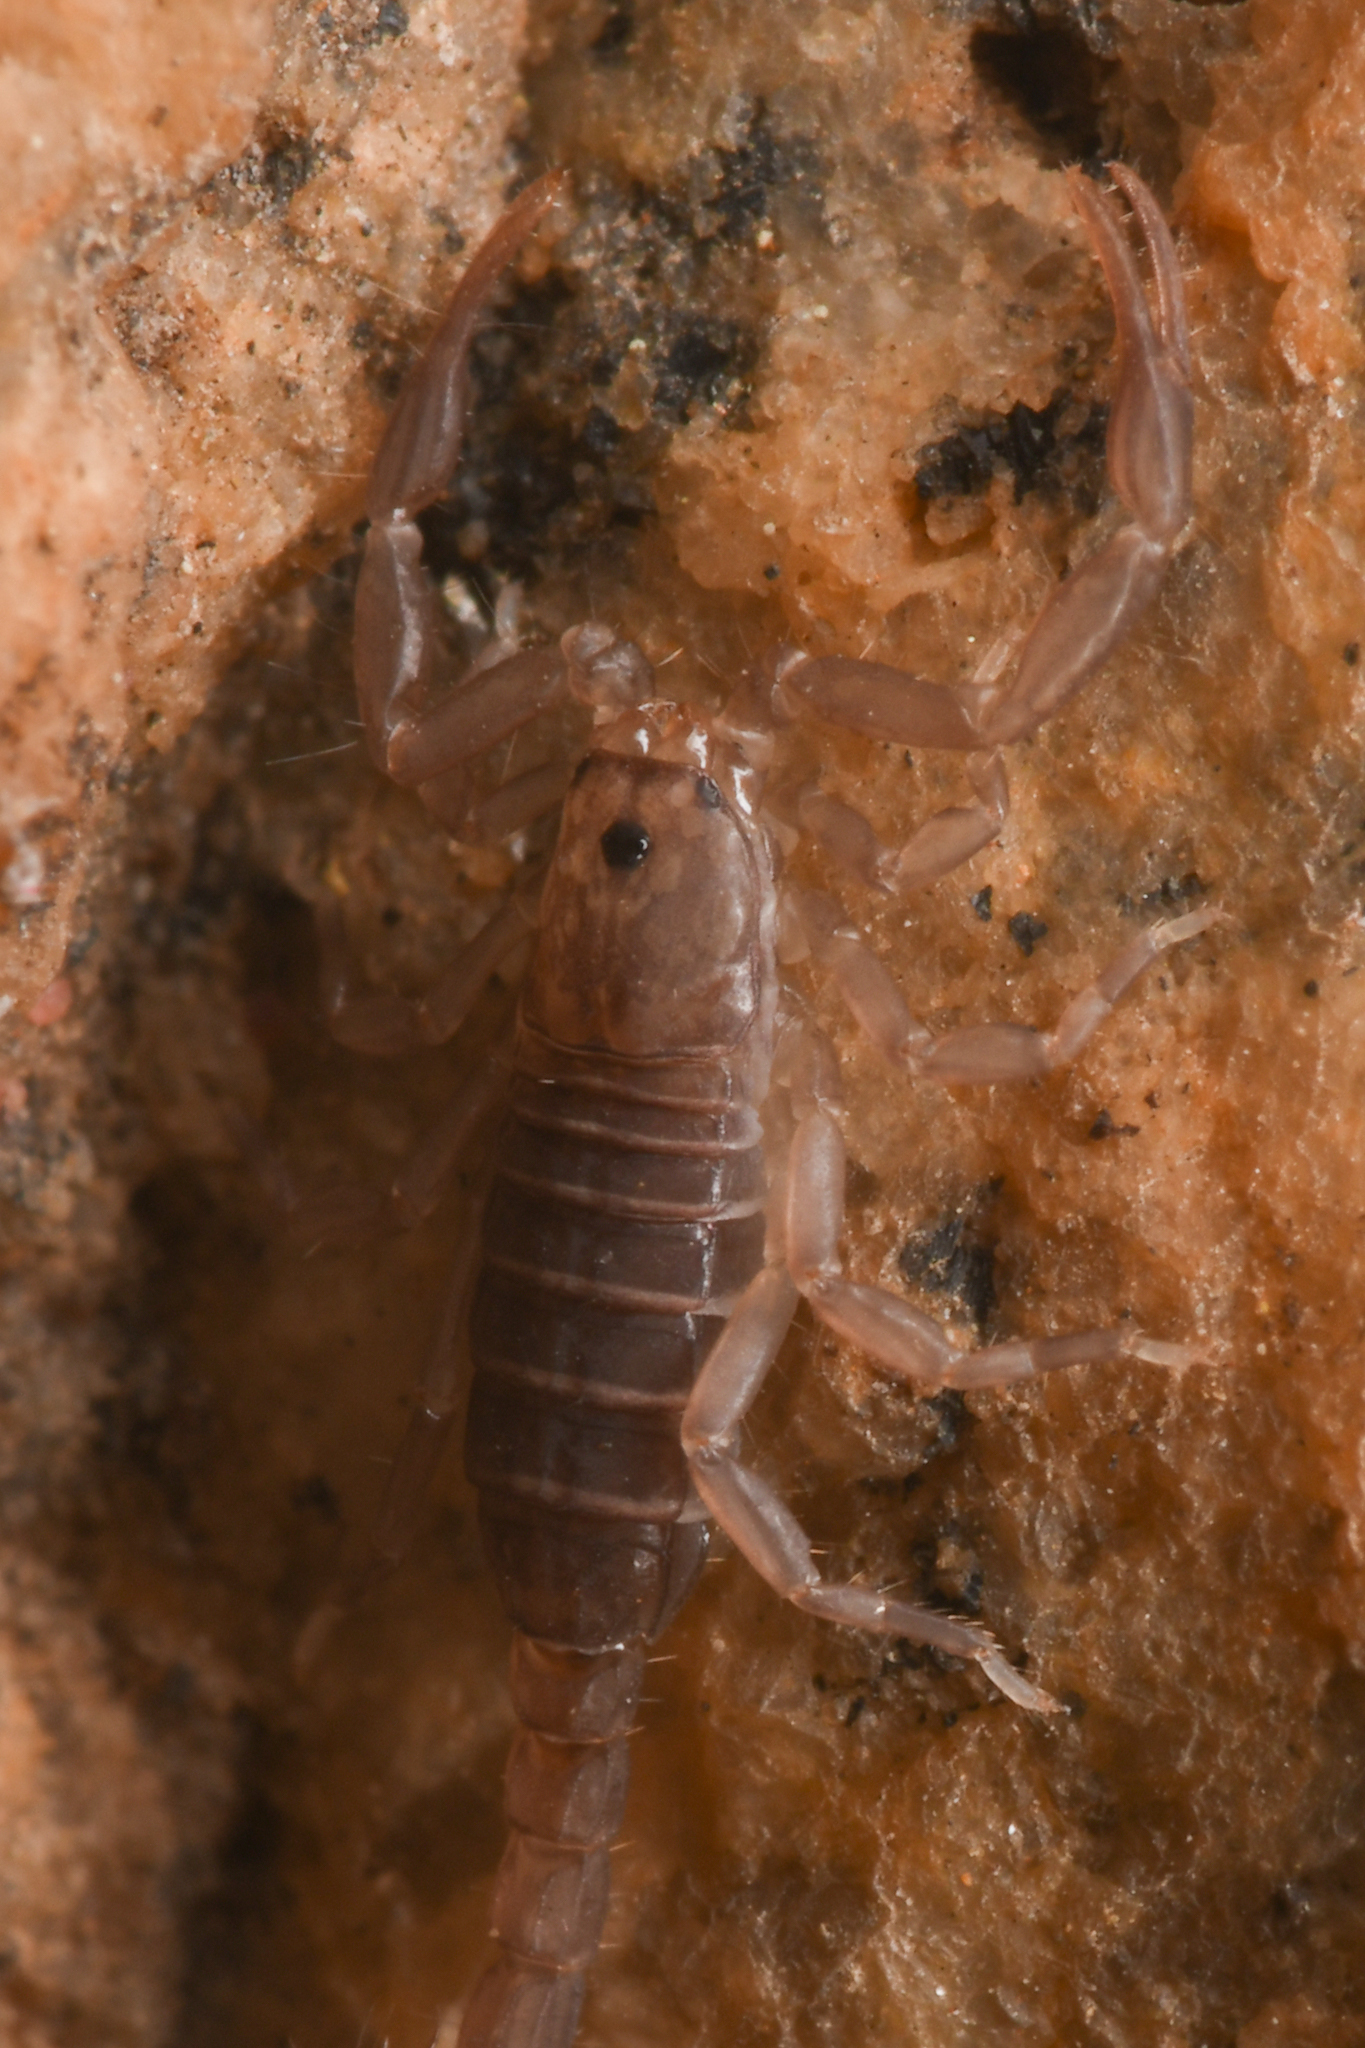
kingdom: Animalia
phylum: Arthropoda
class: Arachnida
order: Scorpiones
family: Vaejovidae
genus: Serradigitus
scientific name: Serradigitus gertschi
